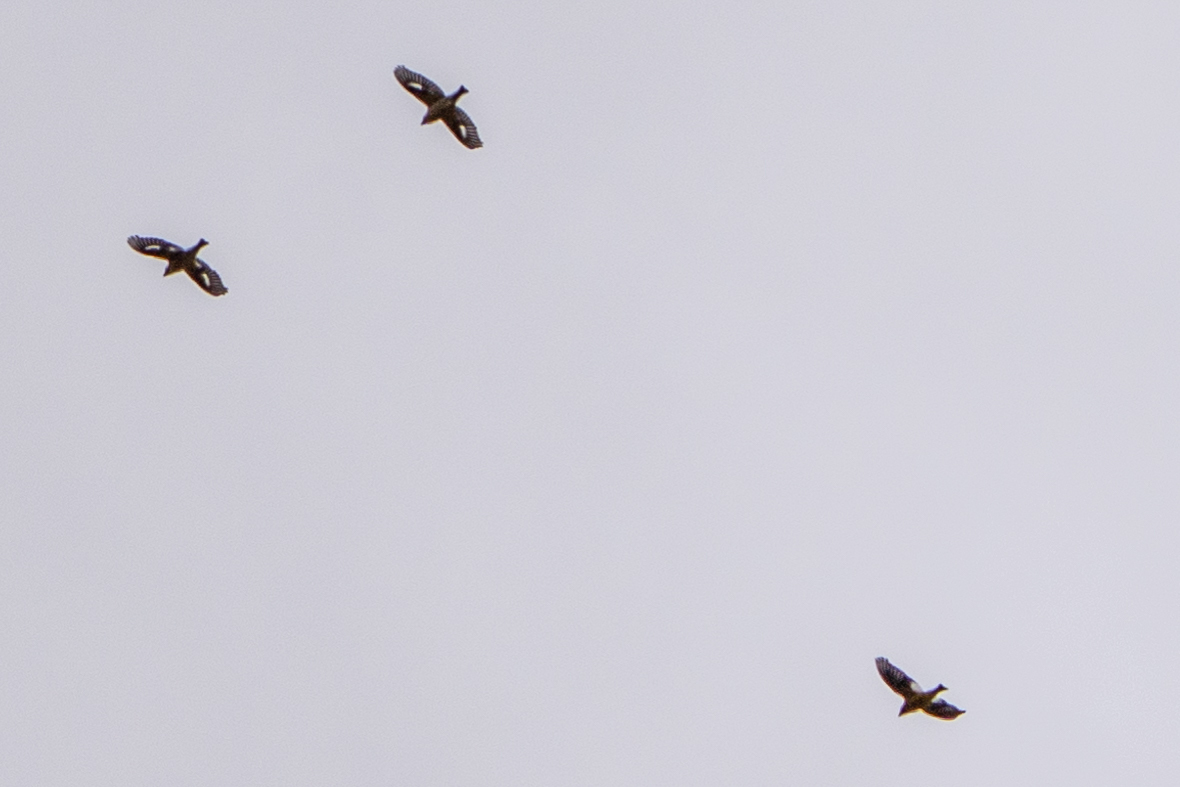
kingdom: Animalia
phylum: Chordata
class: Aves
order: Passeriformes
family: Fringillidae
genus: Hesperiphona
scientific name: Hesperiphona vespertina
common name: Evening grosbeak
